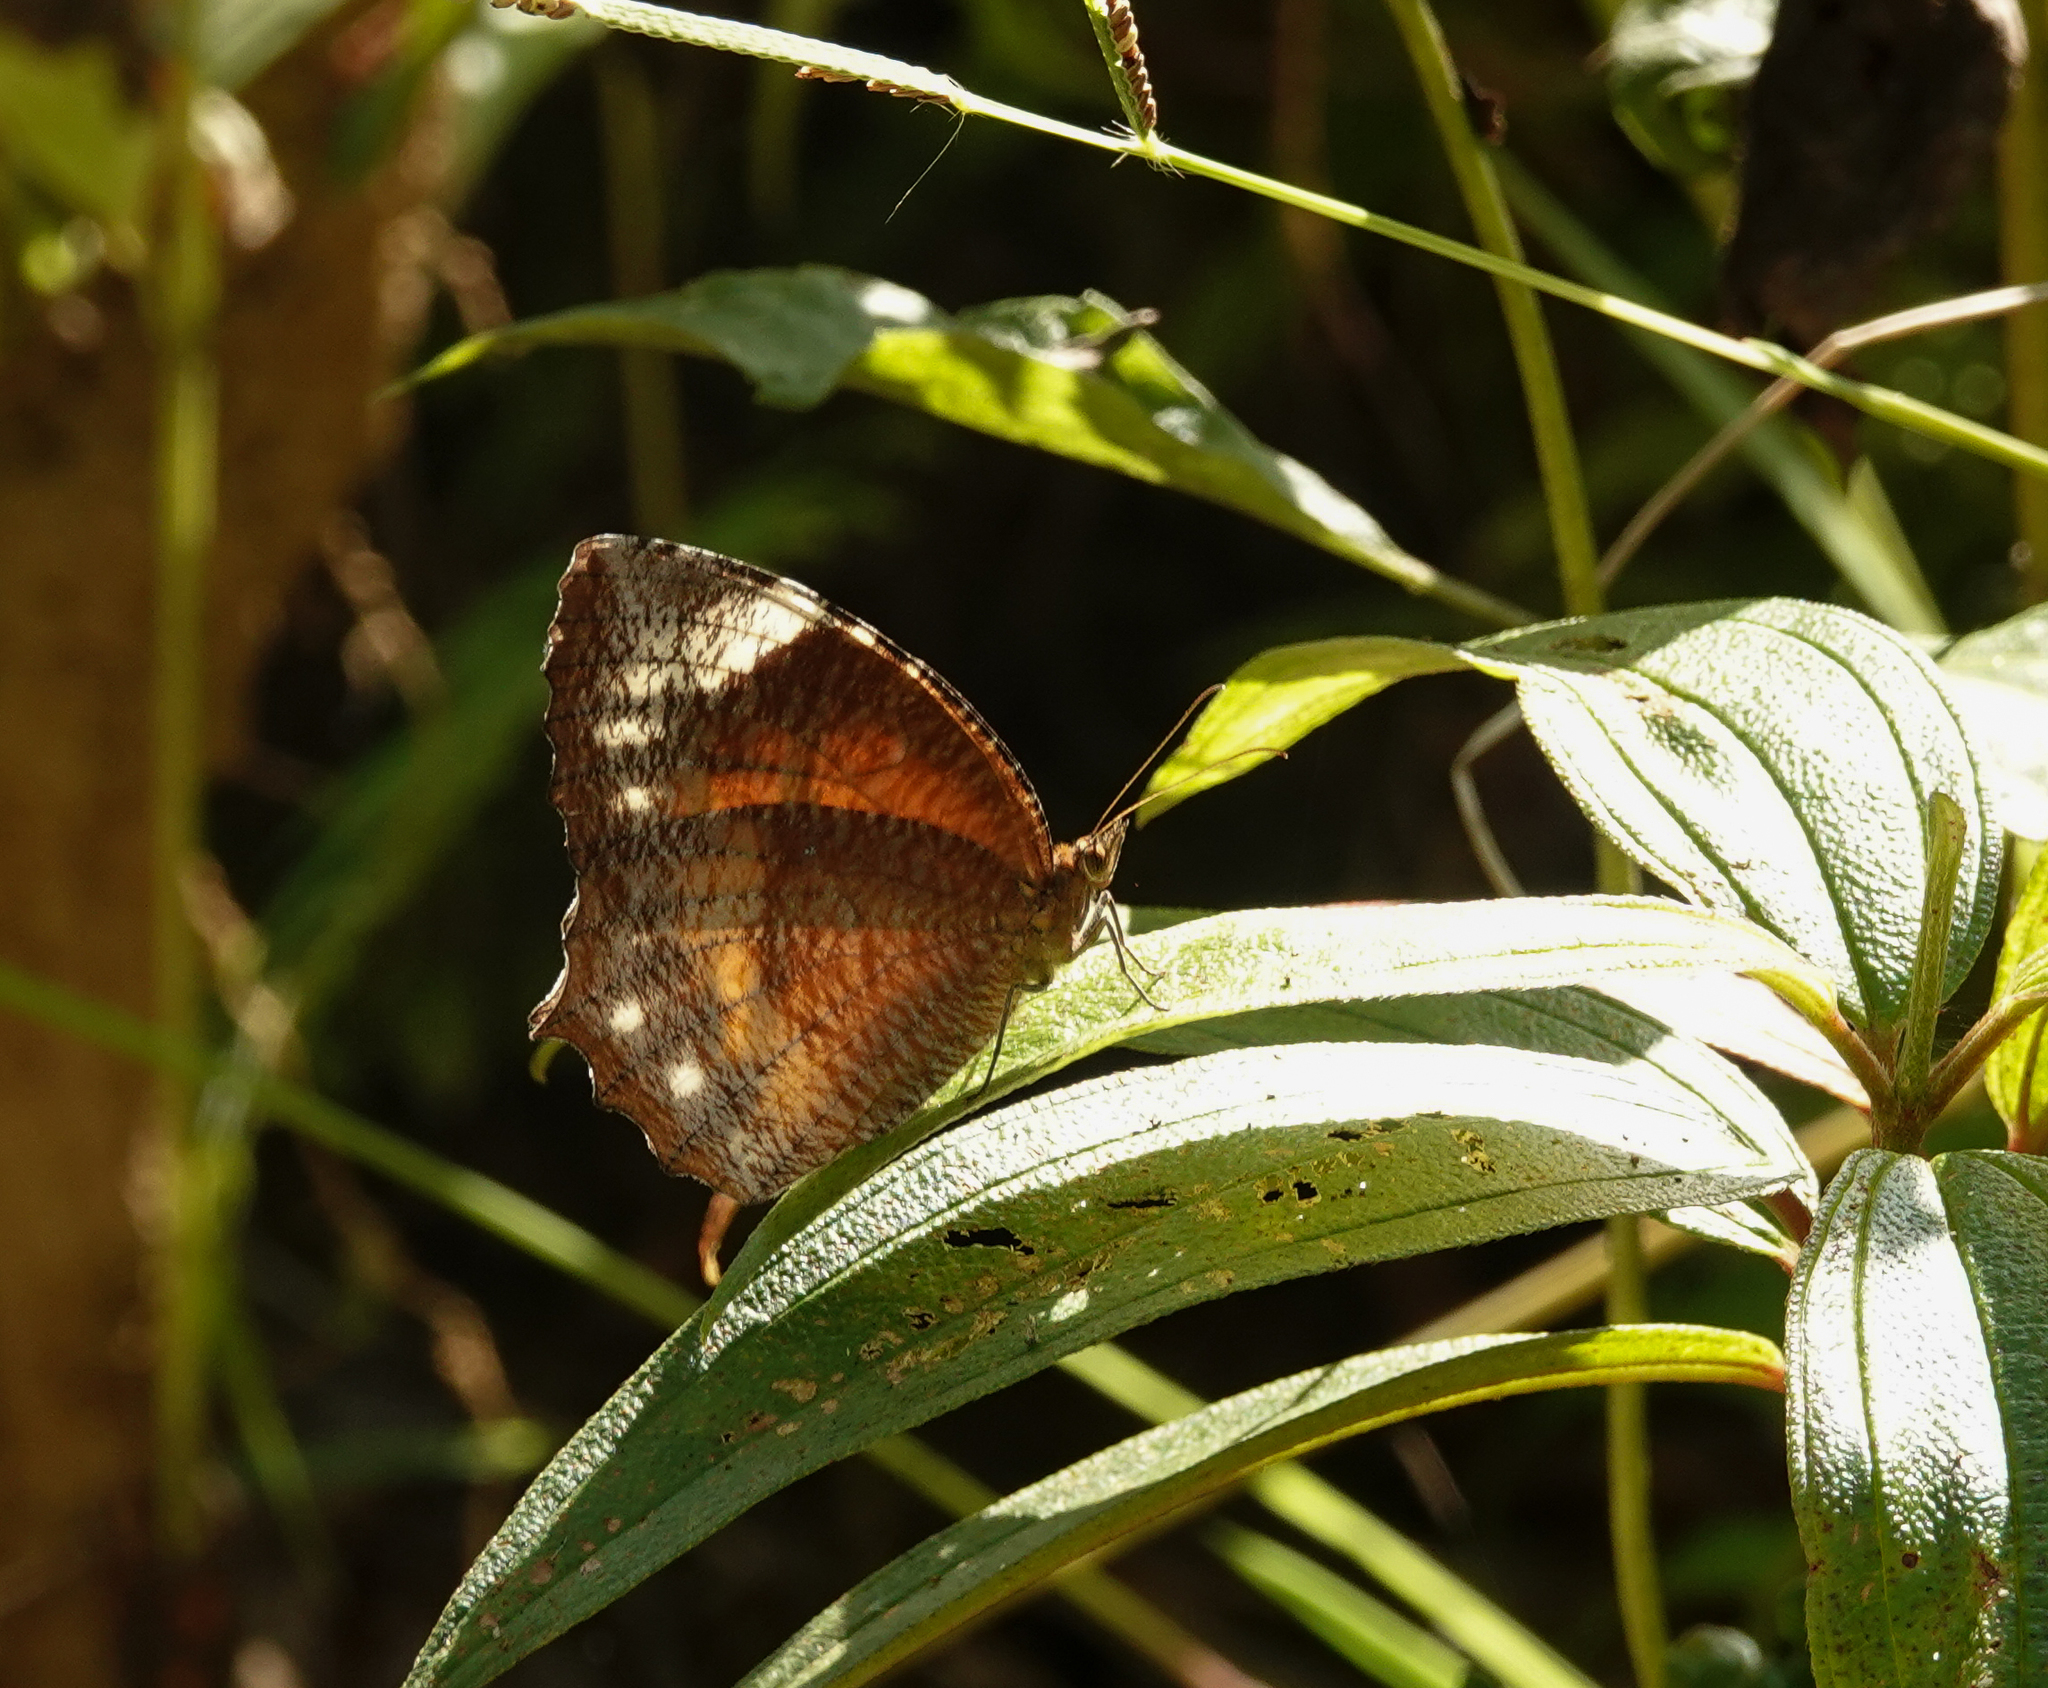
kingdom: Animalia
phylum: Arthropoda
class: Insecta
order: Lepidoptera
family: Nymphalidae
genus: Elymnias
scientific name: Elymnias hypermnestra
